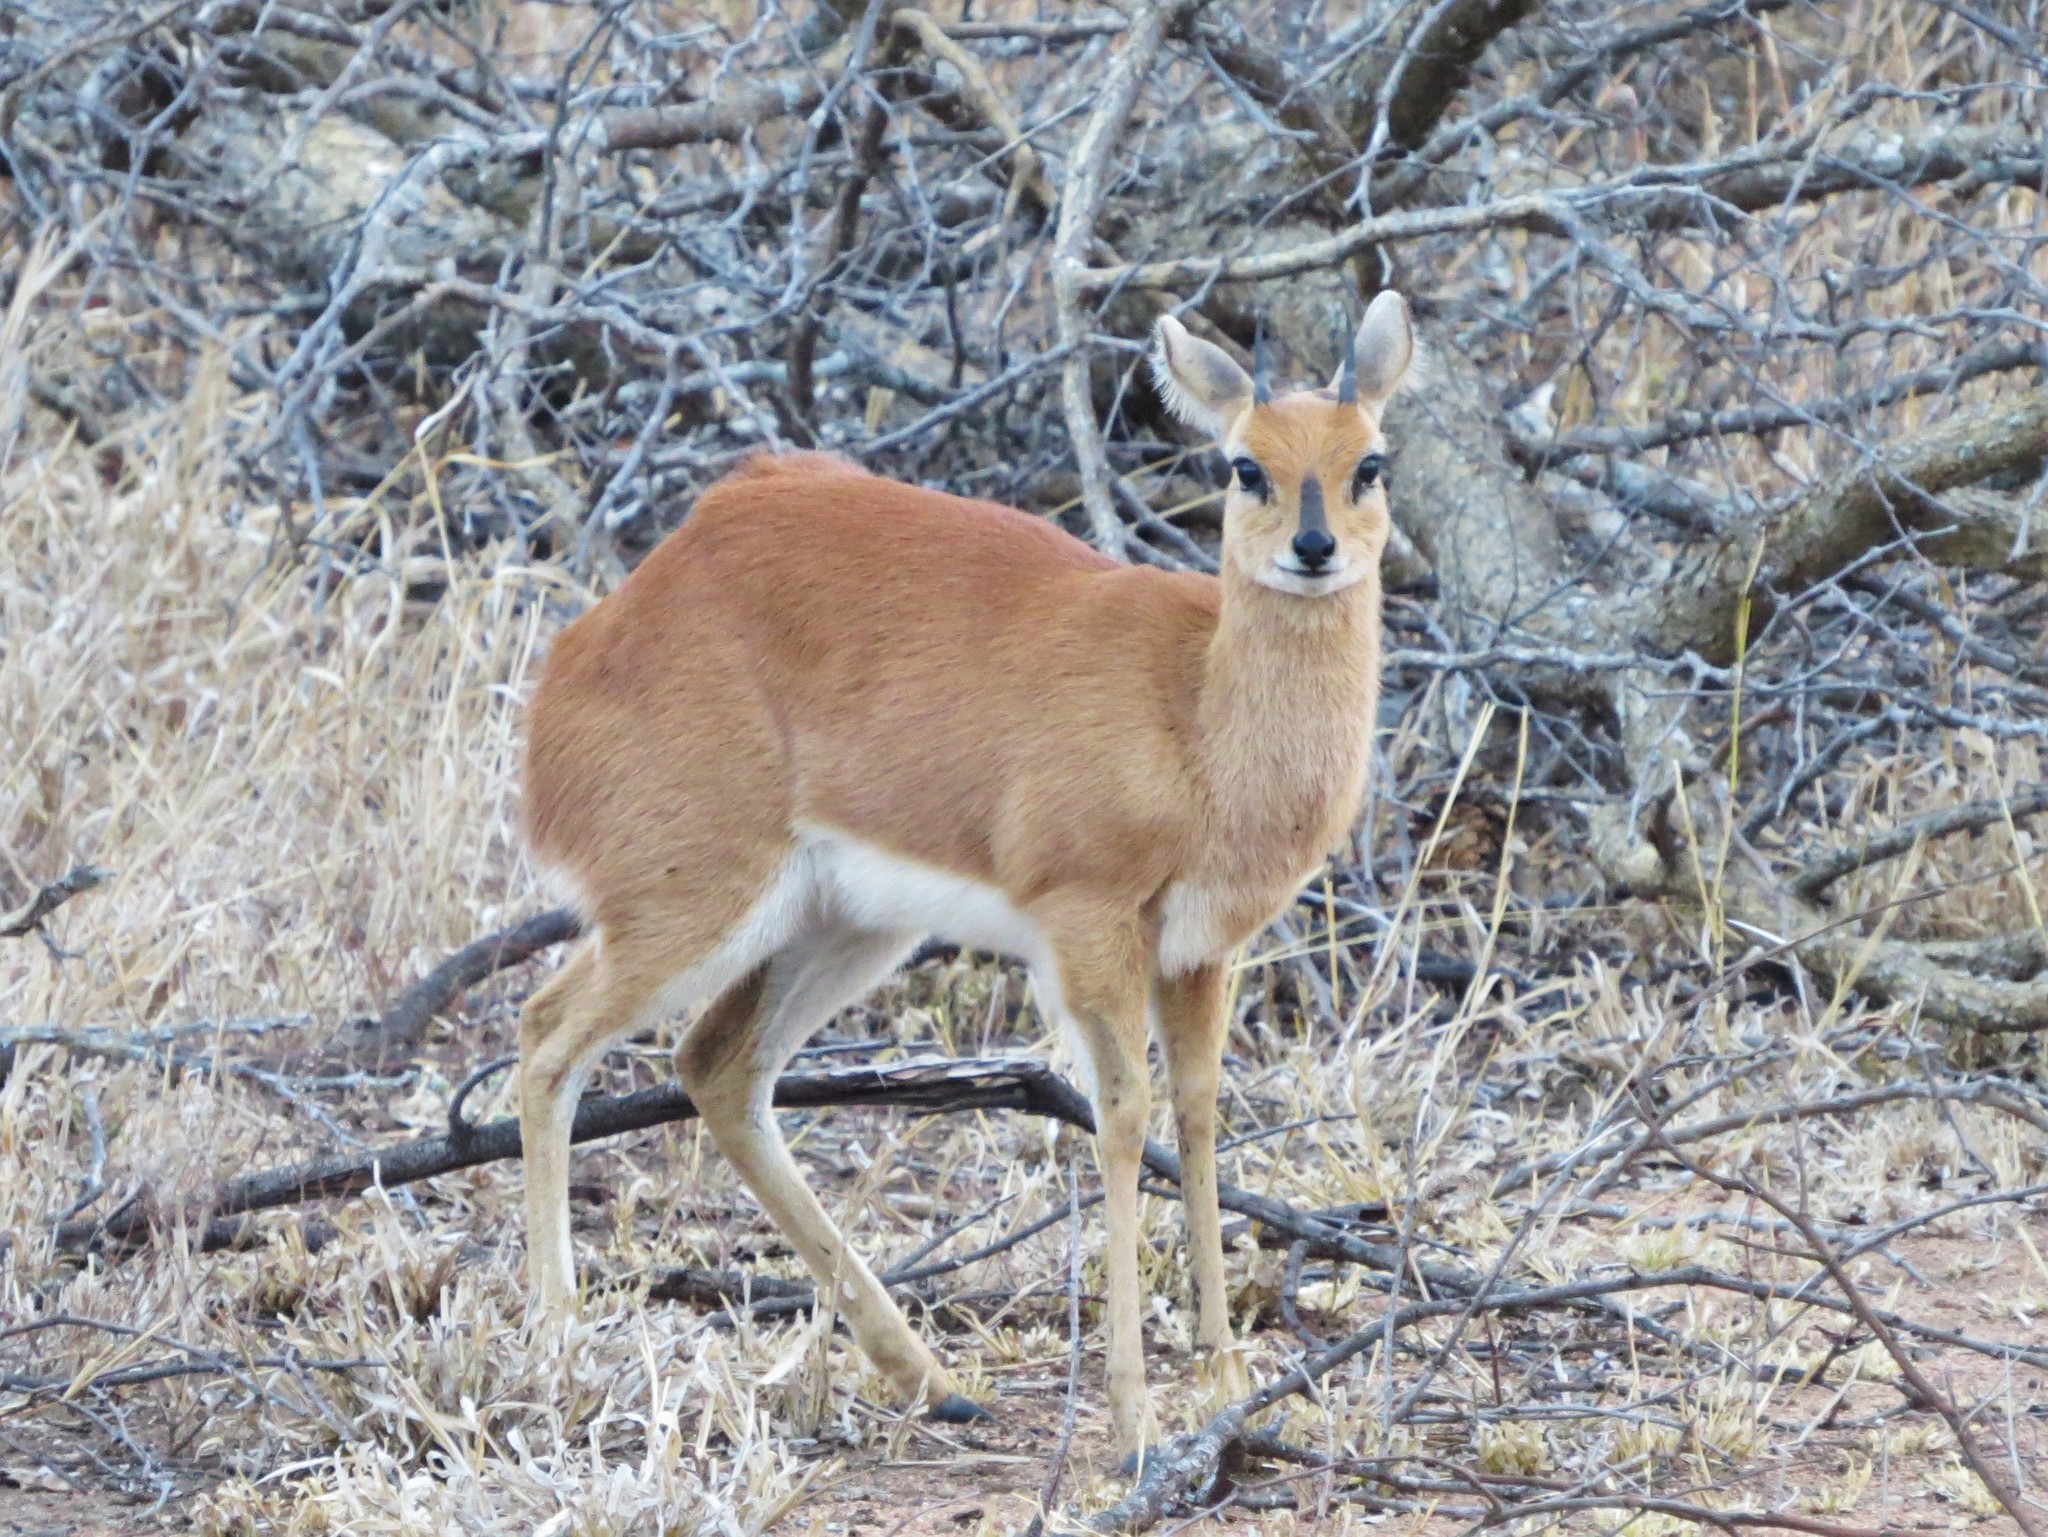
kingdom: Animalia
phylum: Chordata
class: Mammalia
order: Artiodactyla
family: Bovidae
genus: Raphicerus
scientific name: Raphicerus campestris
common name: Steenbok
